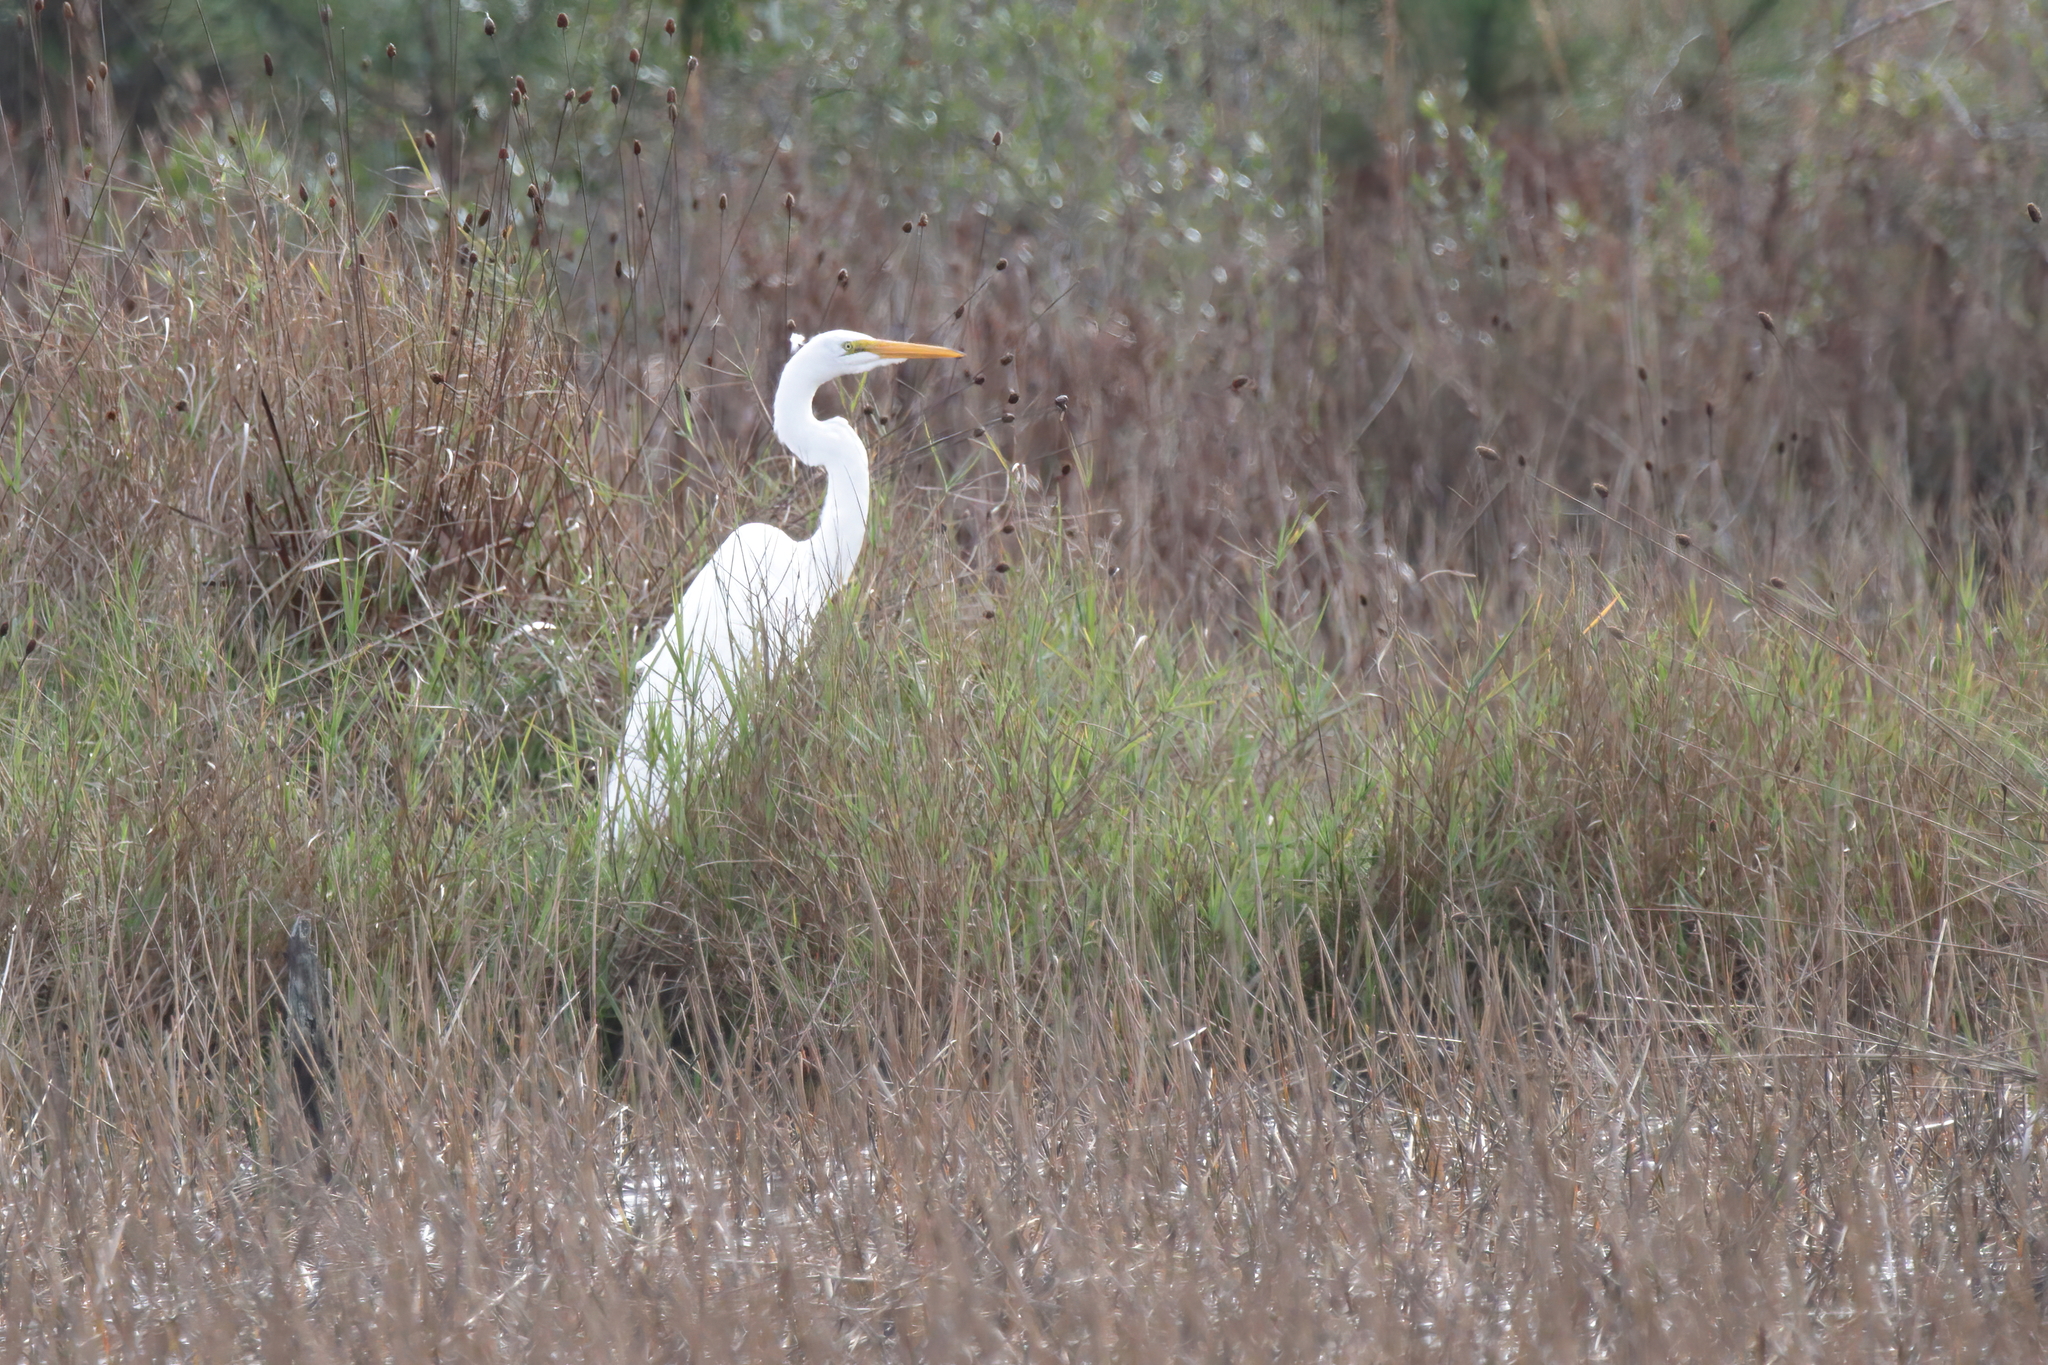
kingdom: Animalia
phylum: Chordata
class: Aves
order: Pelecaniformes
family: Ardeidae
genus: Ardea
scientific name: Ardea alba
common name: Great egret
